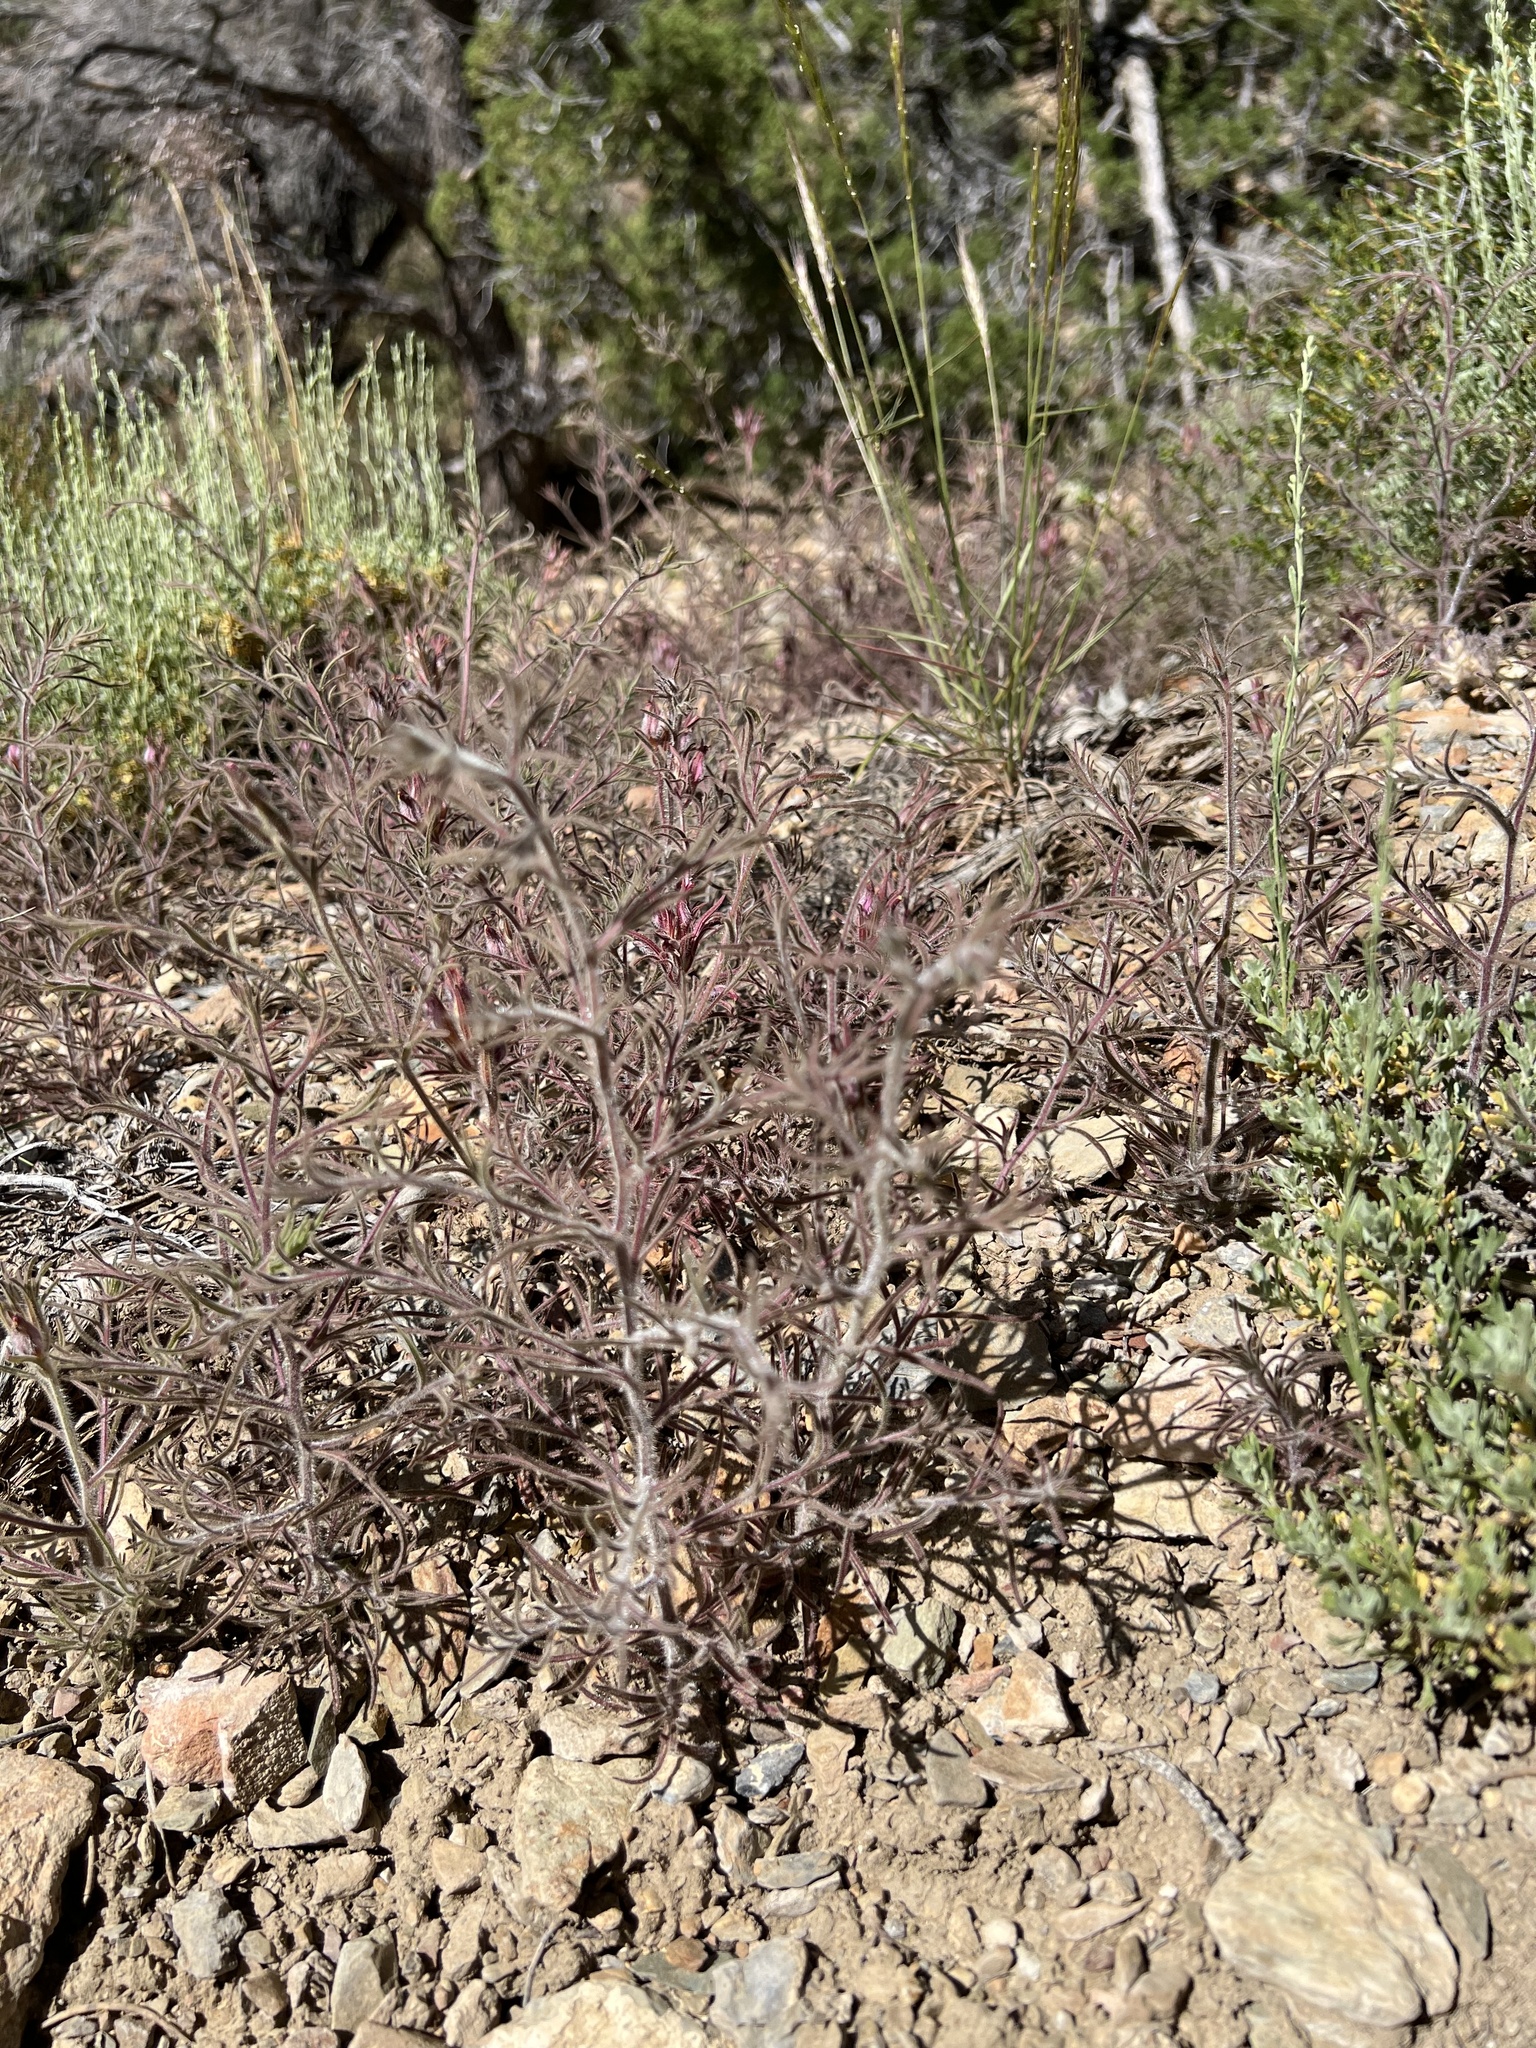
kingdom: Plantae
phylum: Tracheophyta
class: Magnoliopsida
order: Lamiales
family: Orobanchaceae
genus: Cordylanthus
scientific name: Cordylanthus kingii
